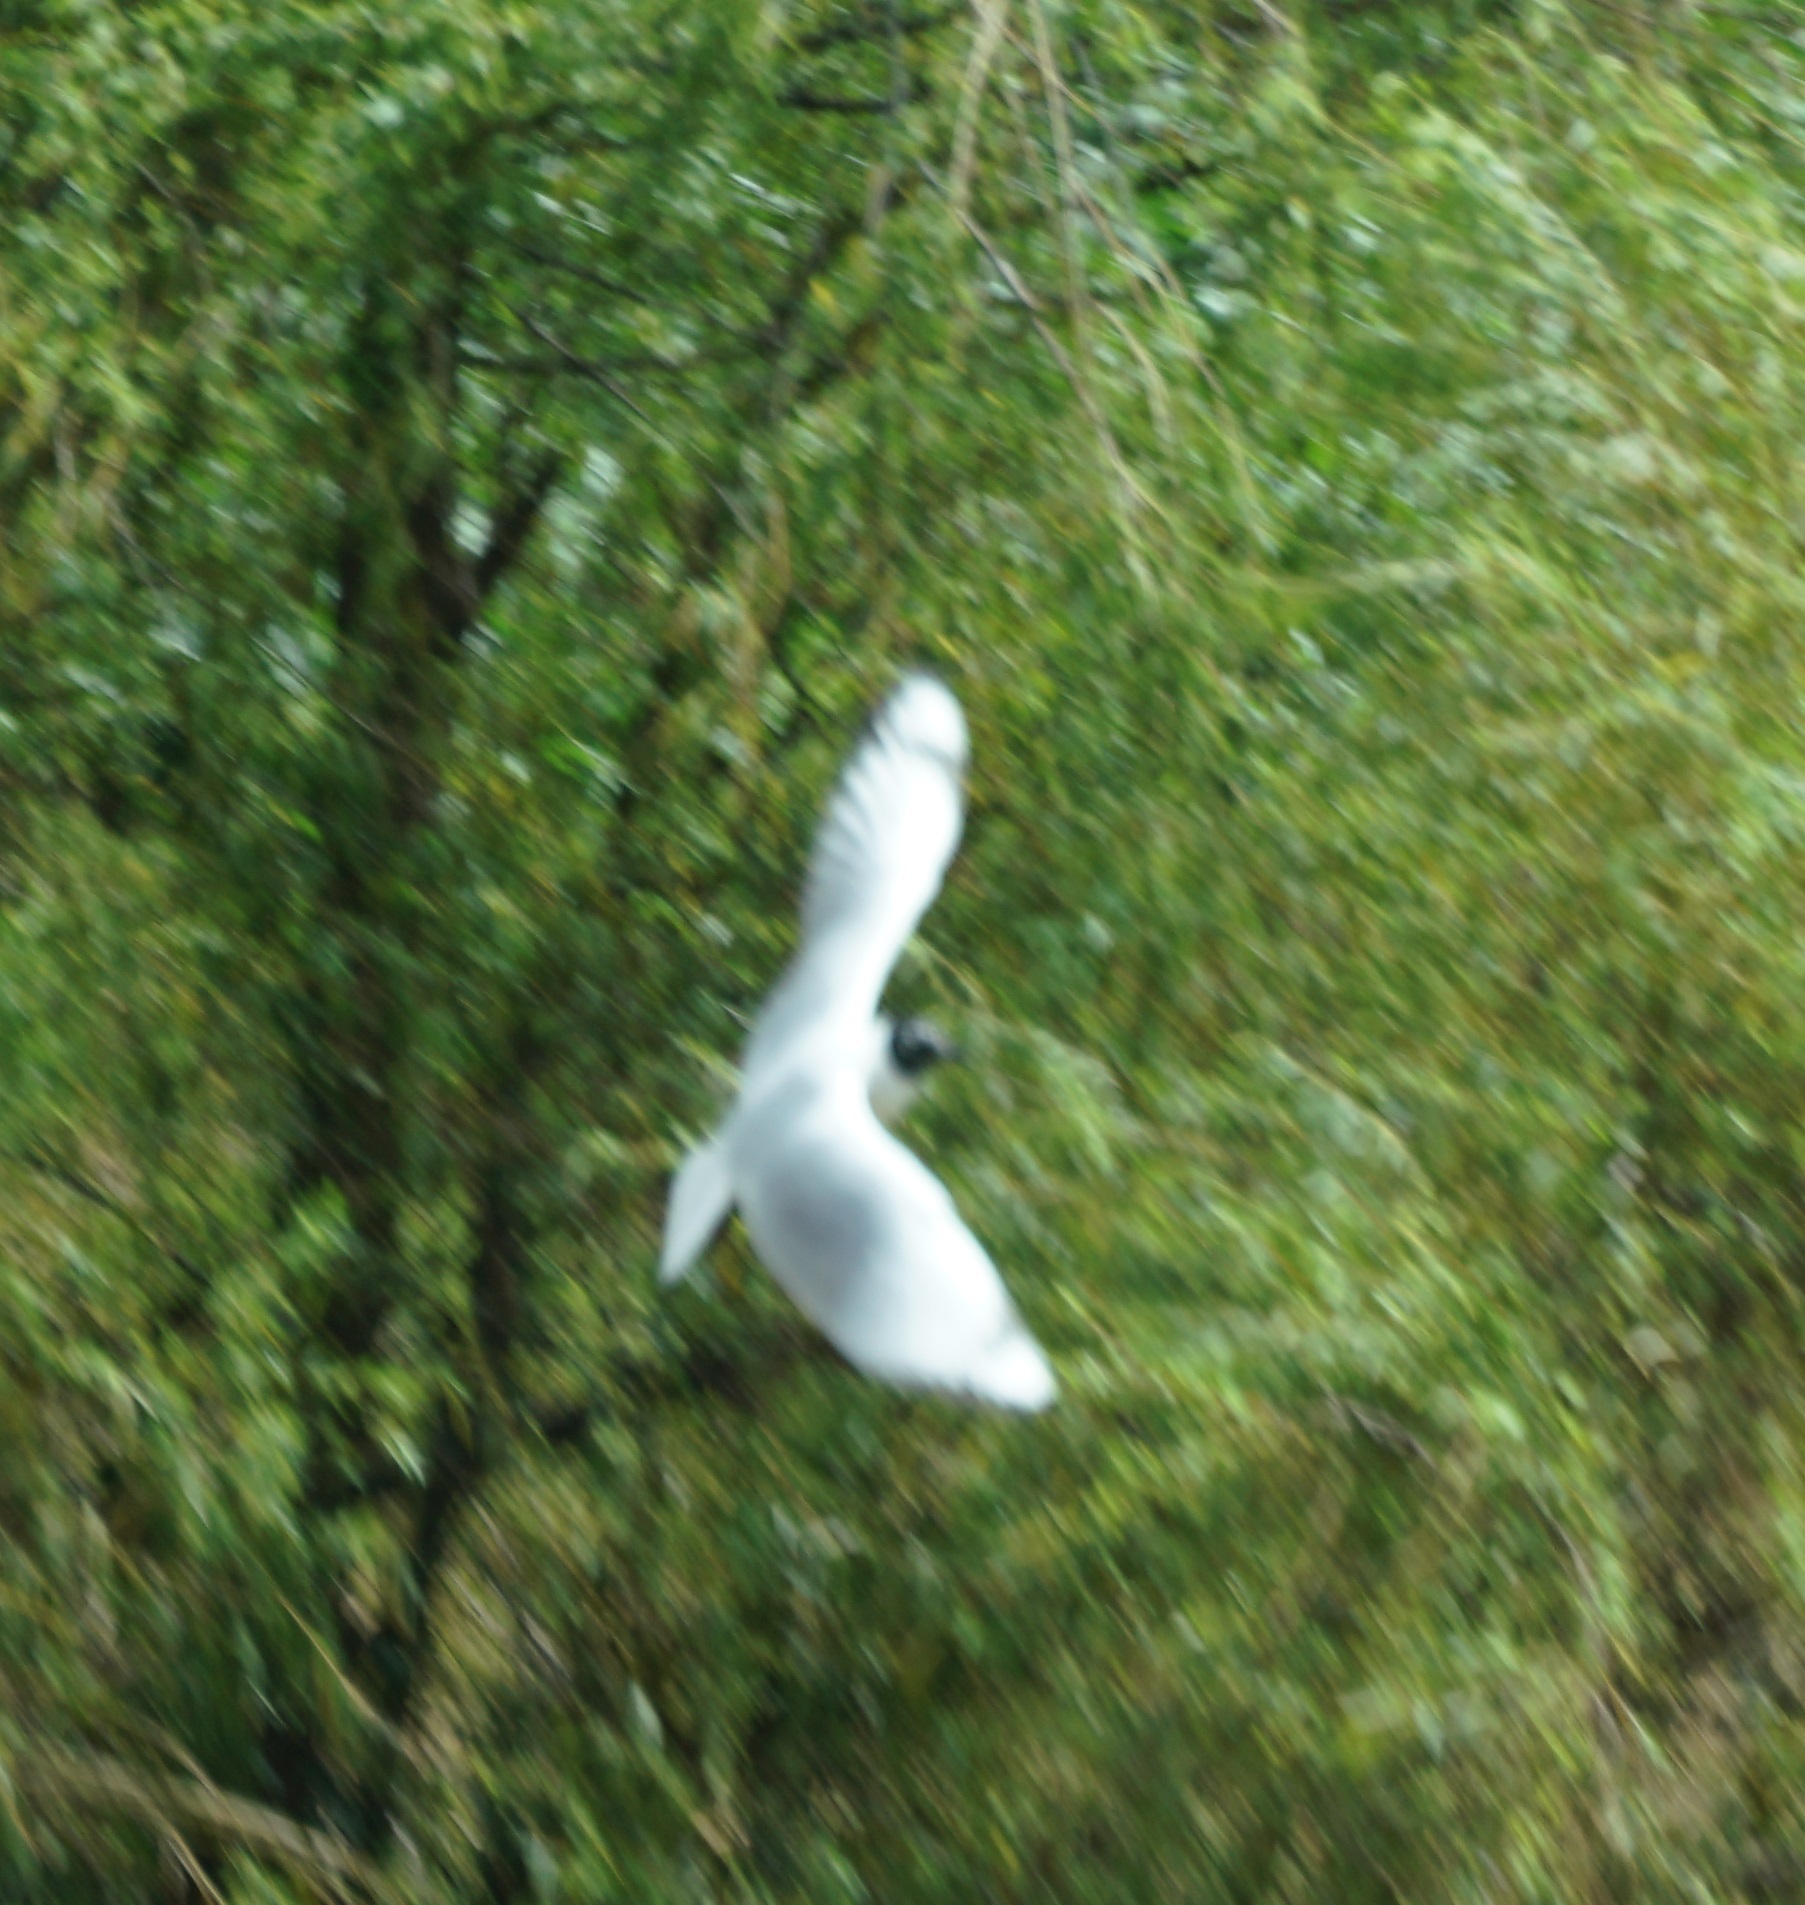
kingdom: Animalia
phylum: Chordata
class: Aves
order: Charadriiformes
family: Laridae
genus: Chroicocephalus
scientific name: Chroicocephalus serranus
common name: Andean gull
